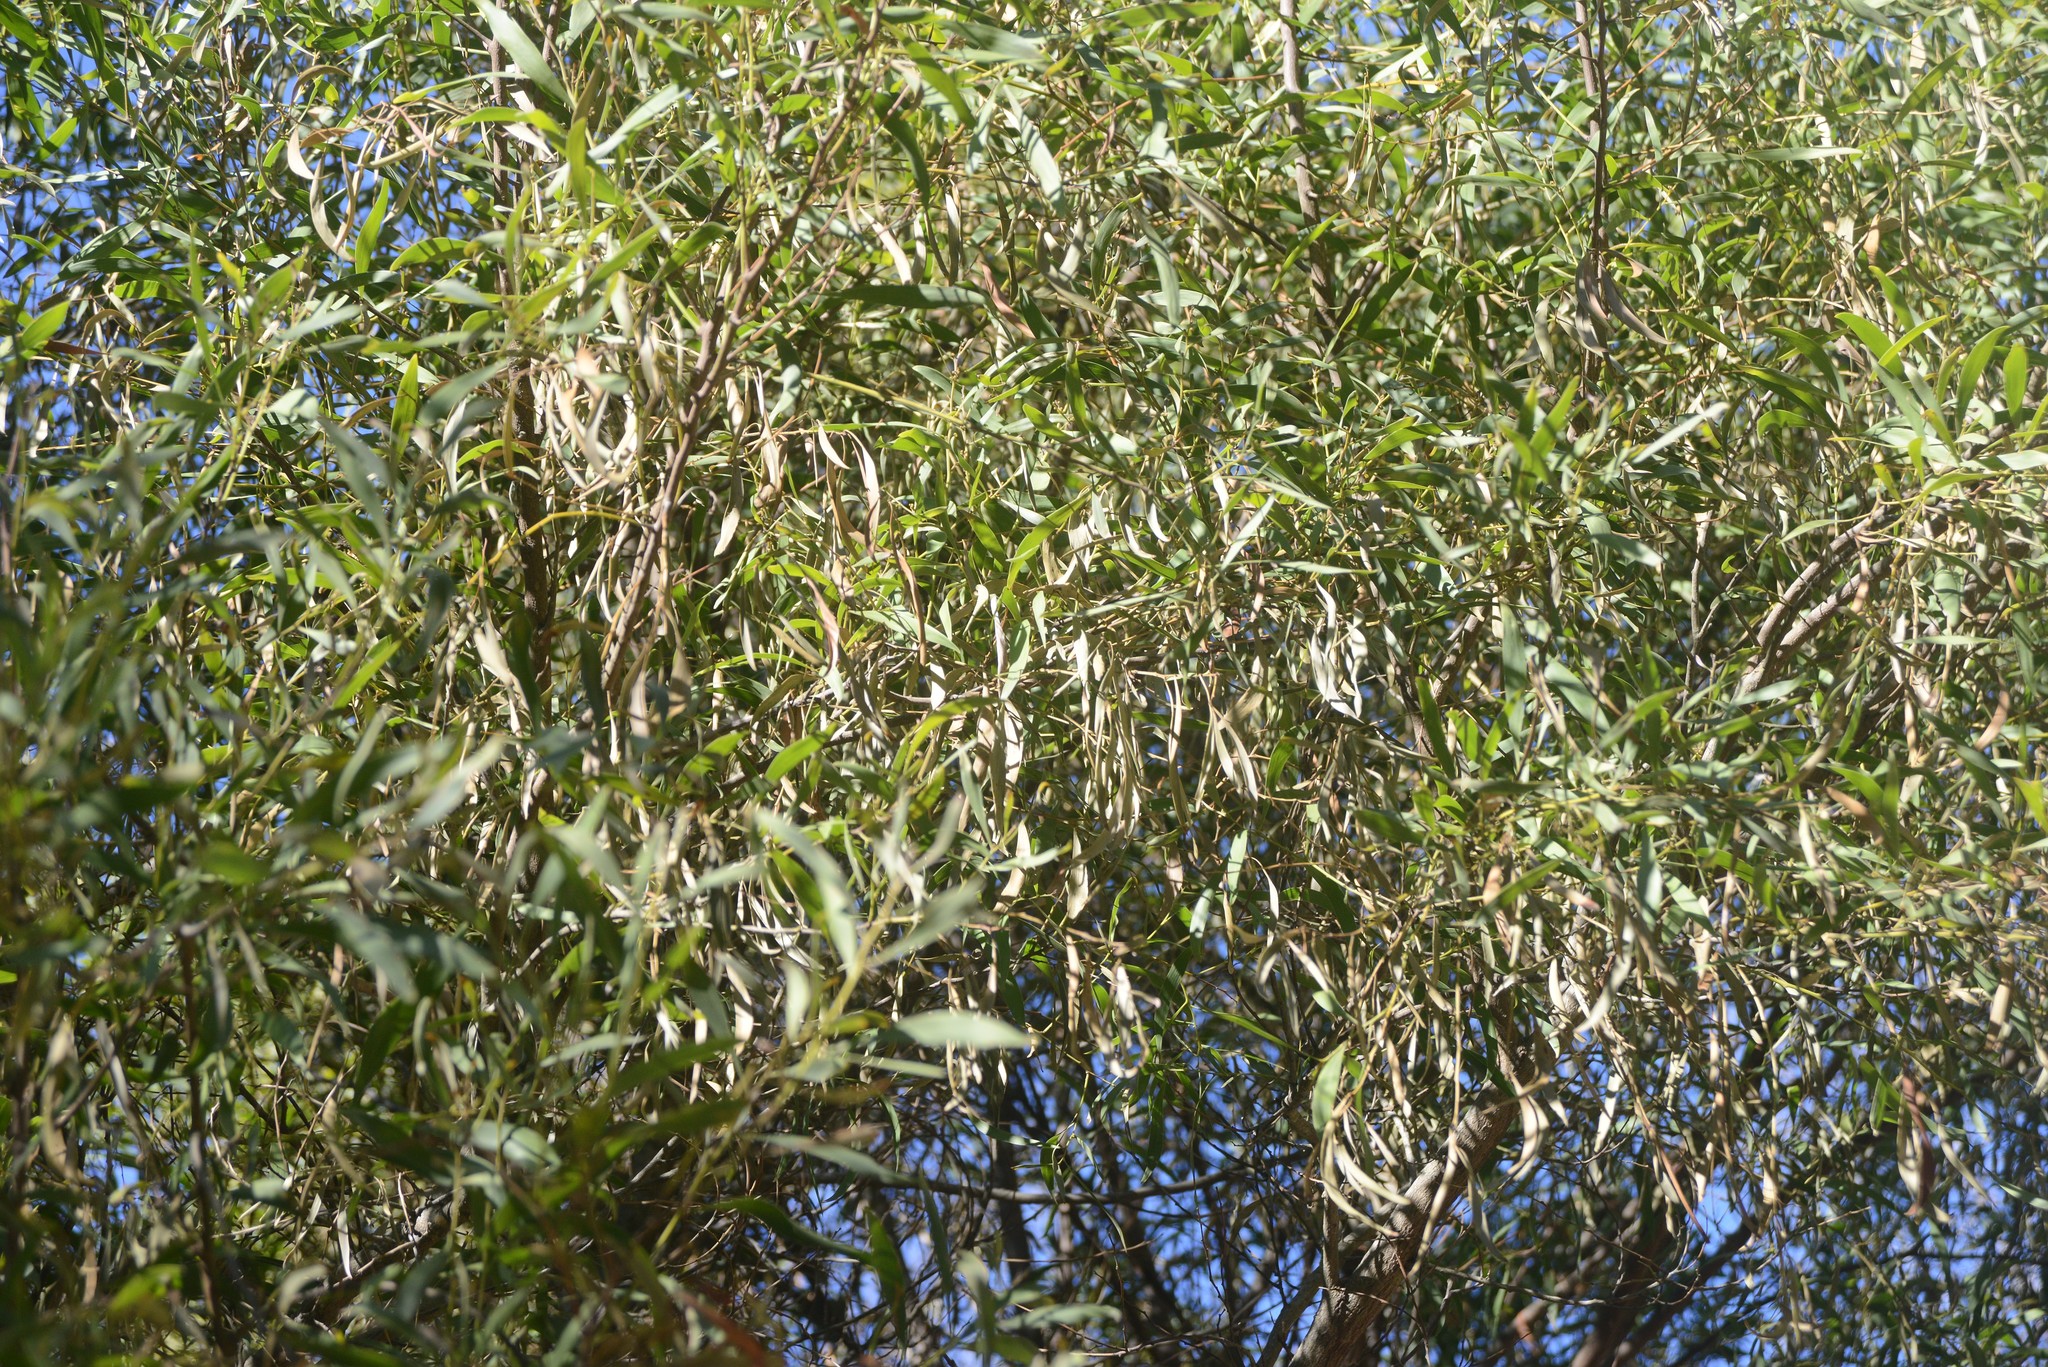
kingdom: Plantae
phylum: Tracheophyta
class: Magnoliopsida
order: Fabales
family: Fabaceae
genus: Acacia
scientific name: Acacia melanoxylon
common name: Blackwood
